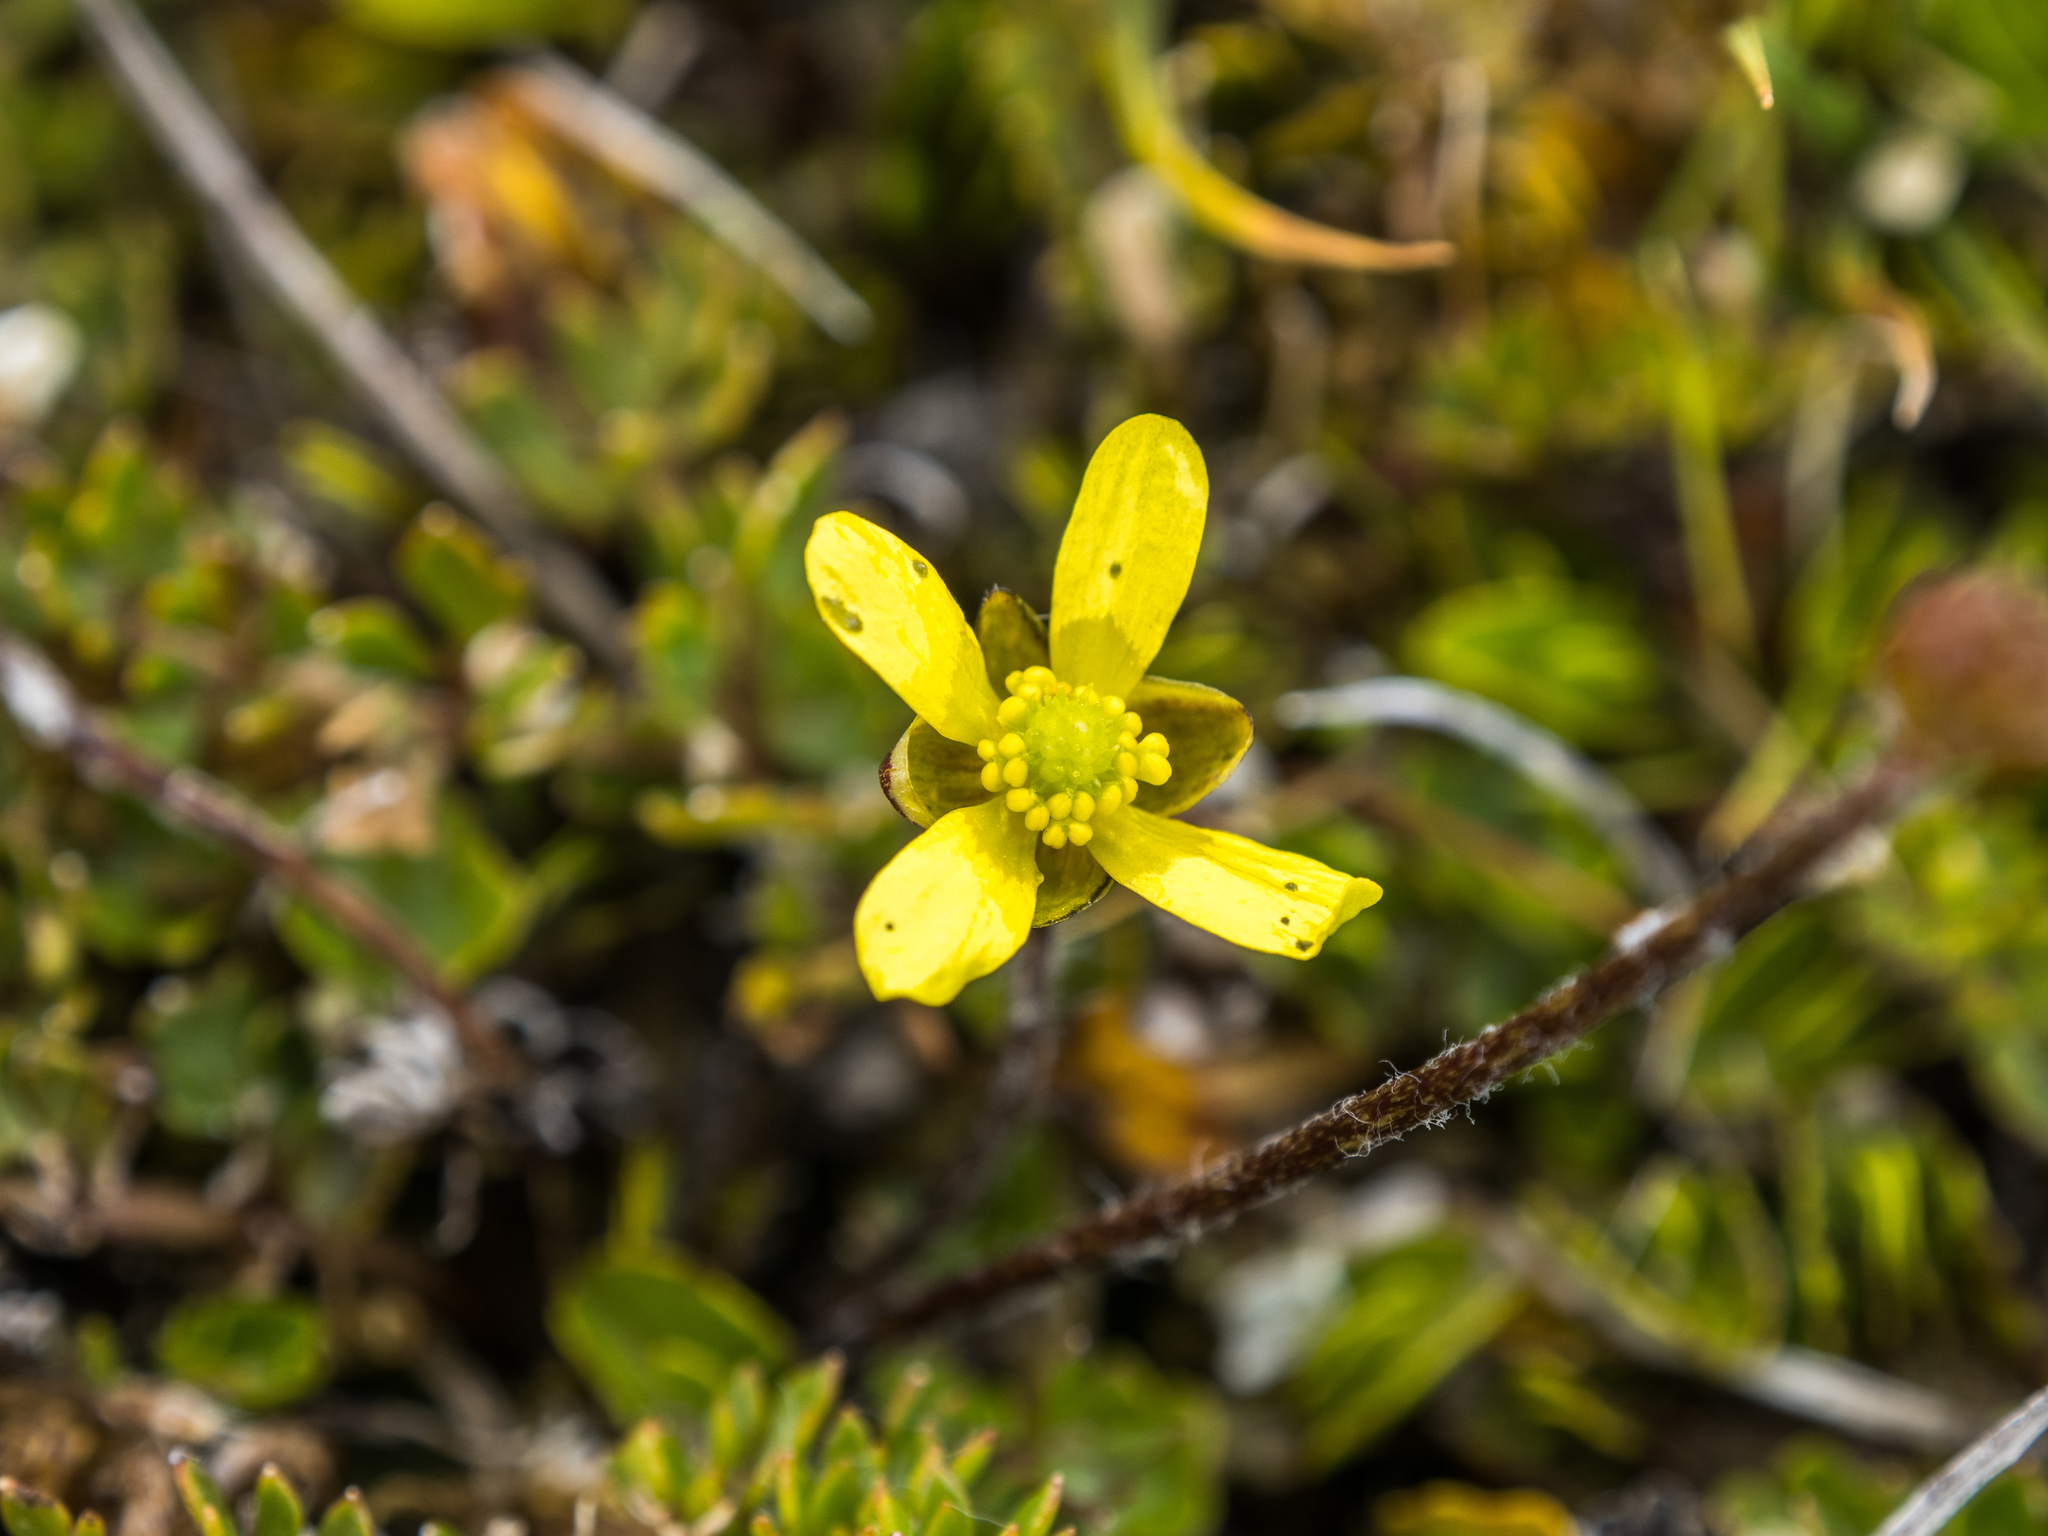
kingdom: Plantae
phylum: Tracheophyta
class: Magnoliopsida
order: Ranunculales
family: Ranunculaceae
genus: Ranunculus
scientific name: Ranunculus gracilipes
